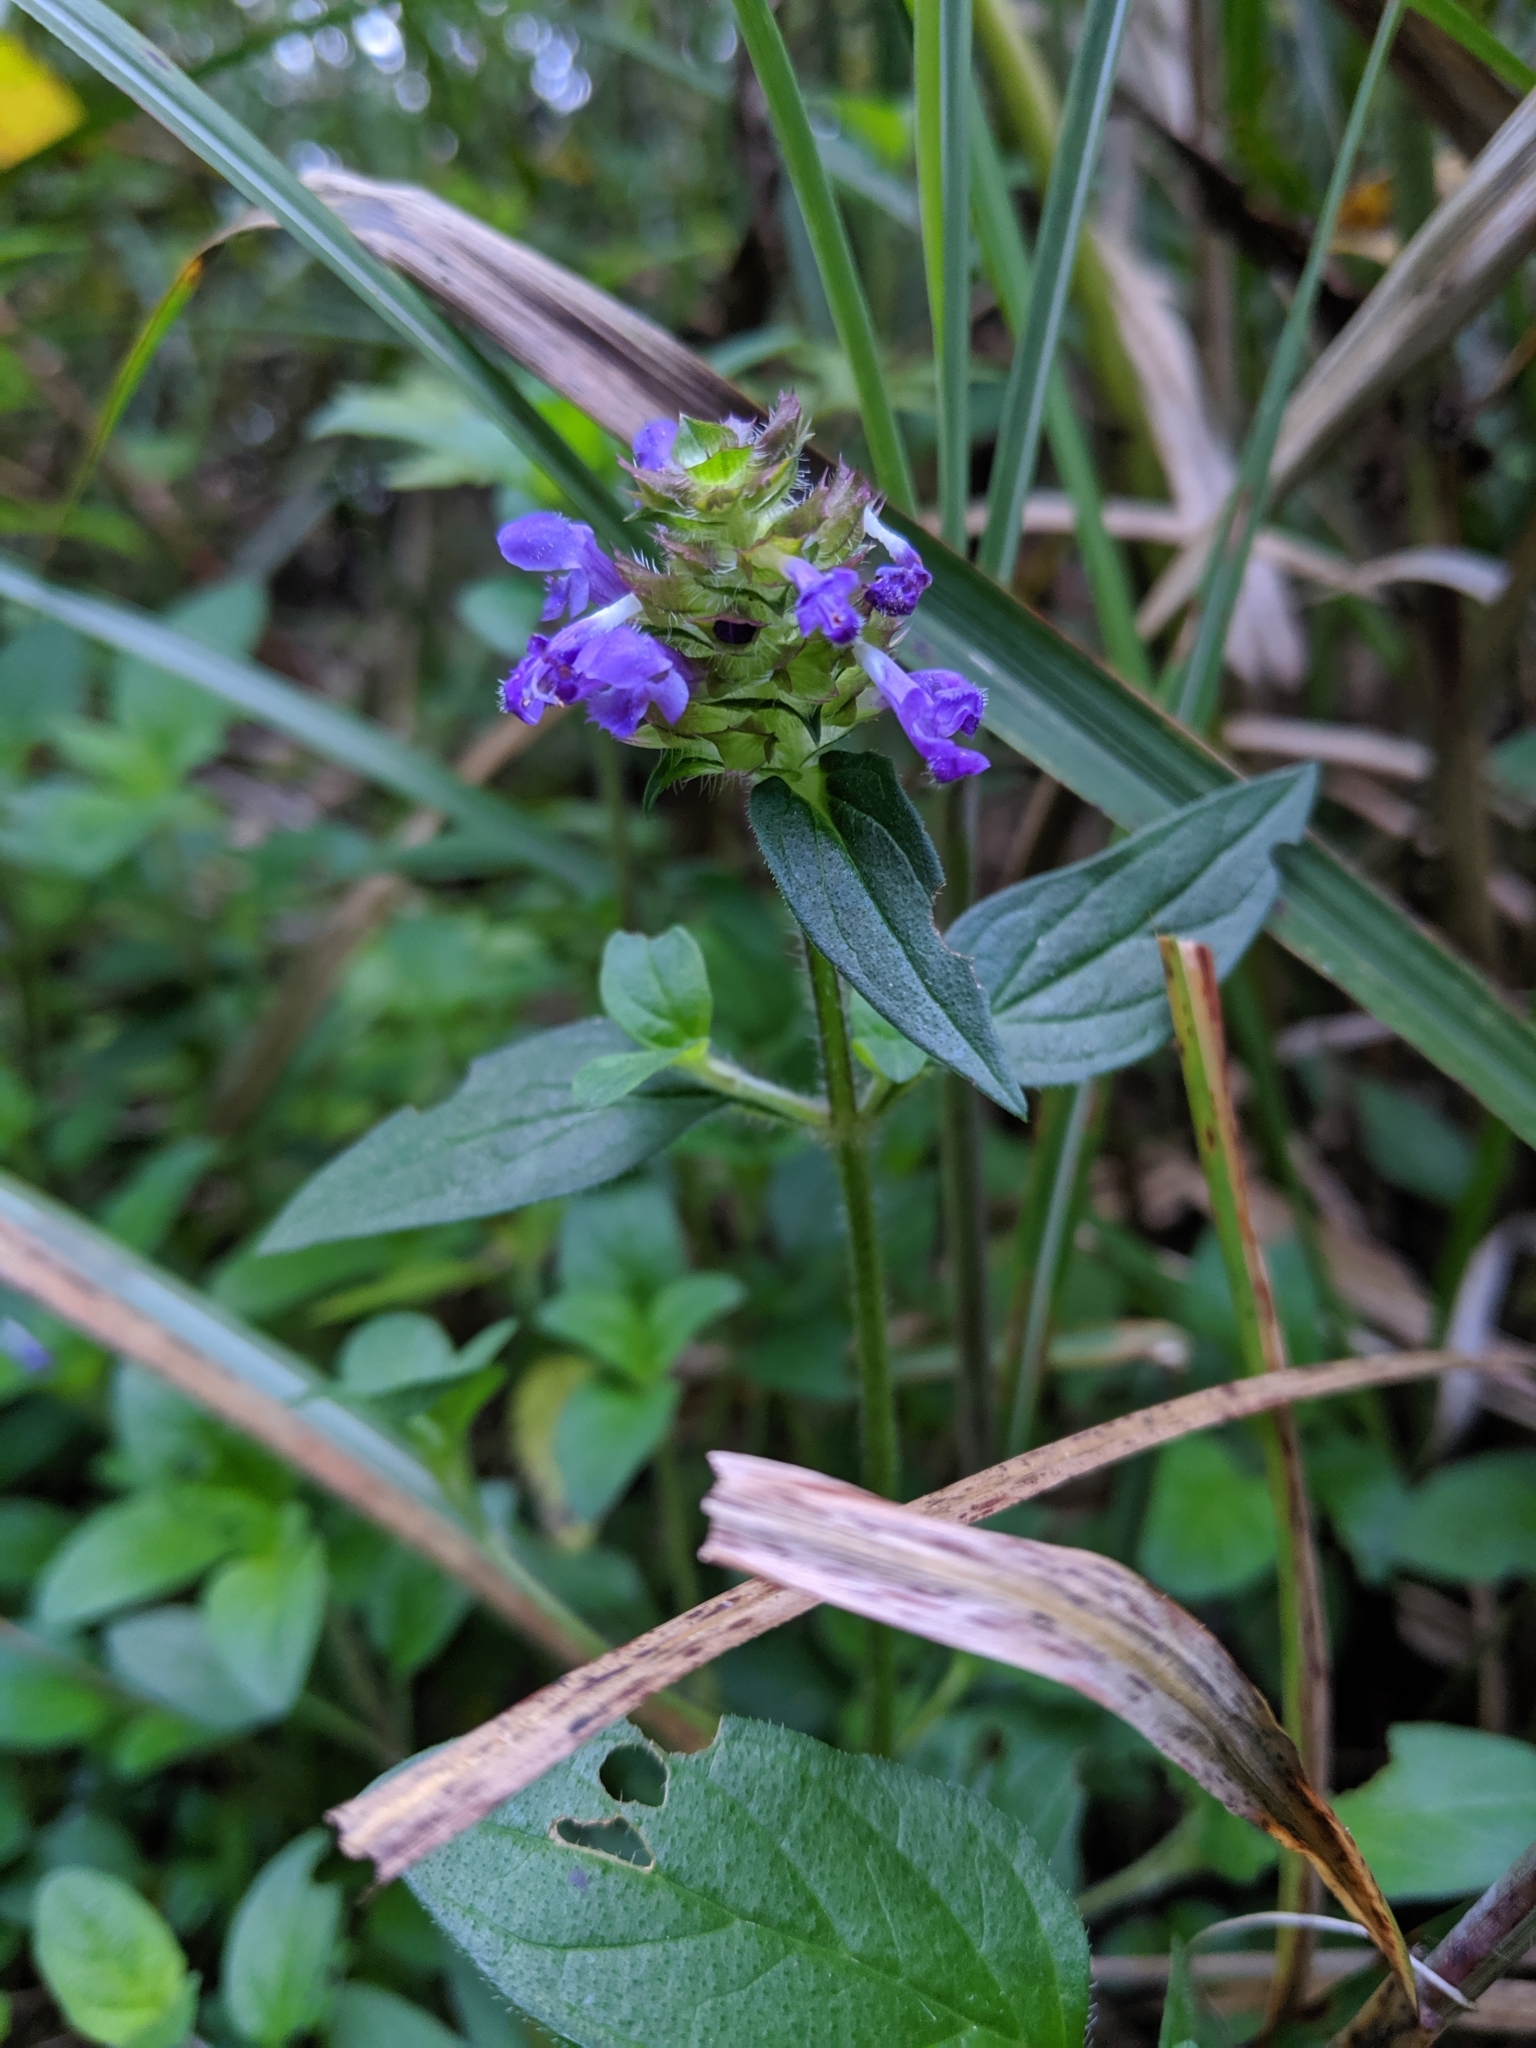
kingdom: Plantae
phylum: Tracheophyta
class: Magnoliopsida
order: Lamiales
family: Lamiaceae
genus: Prunella
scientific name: Prunella vulgaris
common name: Heal-all
